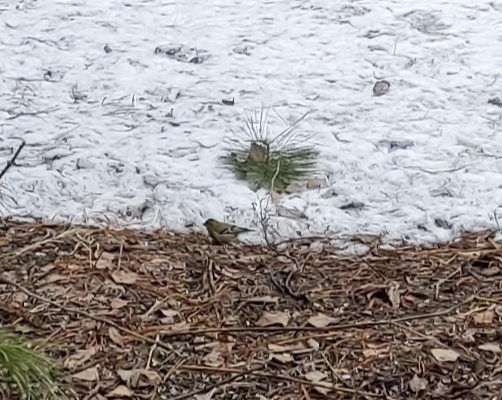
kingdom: Animalia
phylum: Chordata
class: Aves
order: Passeriformes
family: Fringillidae
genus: Spinus
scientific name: Spinus spinus
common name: Eurasian siskin
